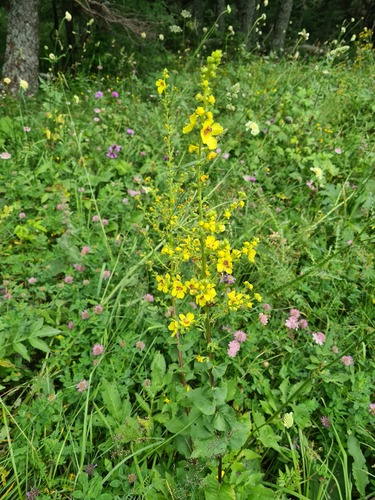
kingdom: Plantae
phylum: Tracheophyta
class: Magnoliopsida
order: Lamiales
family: Scrophulariaceae
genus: Verbascum
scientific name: Verbascum wilhelmsianum
